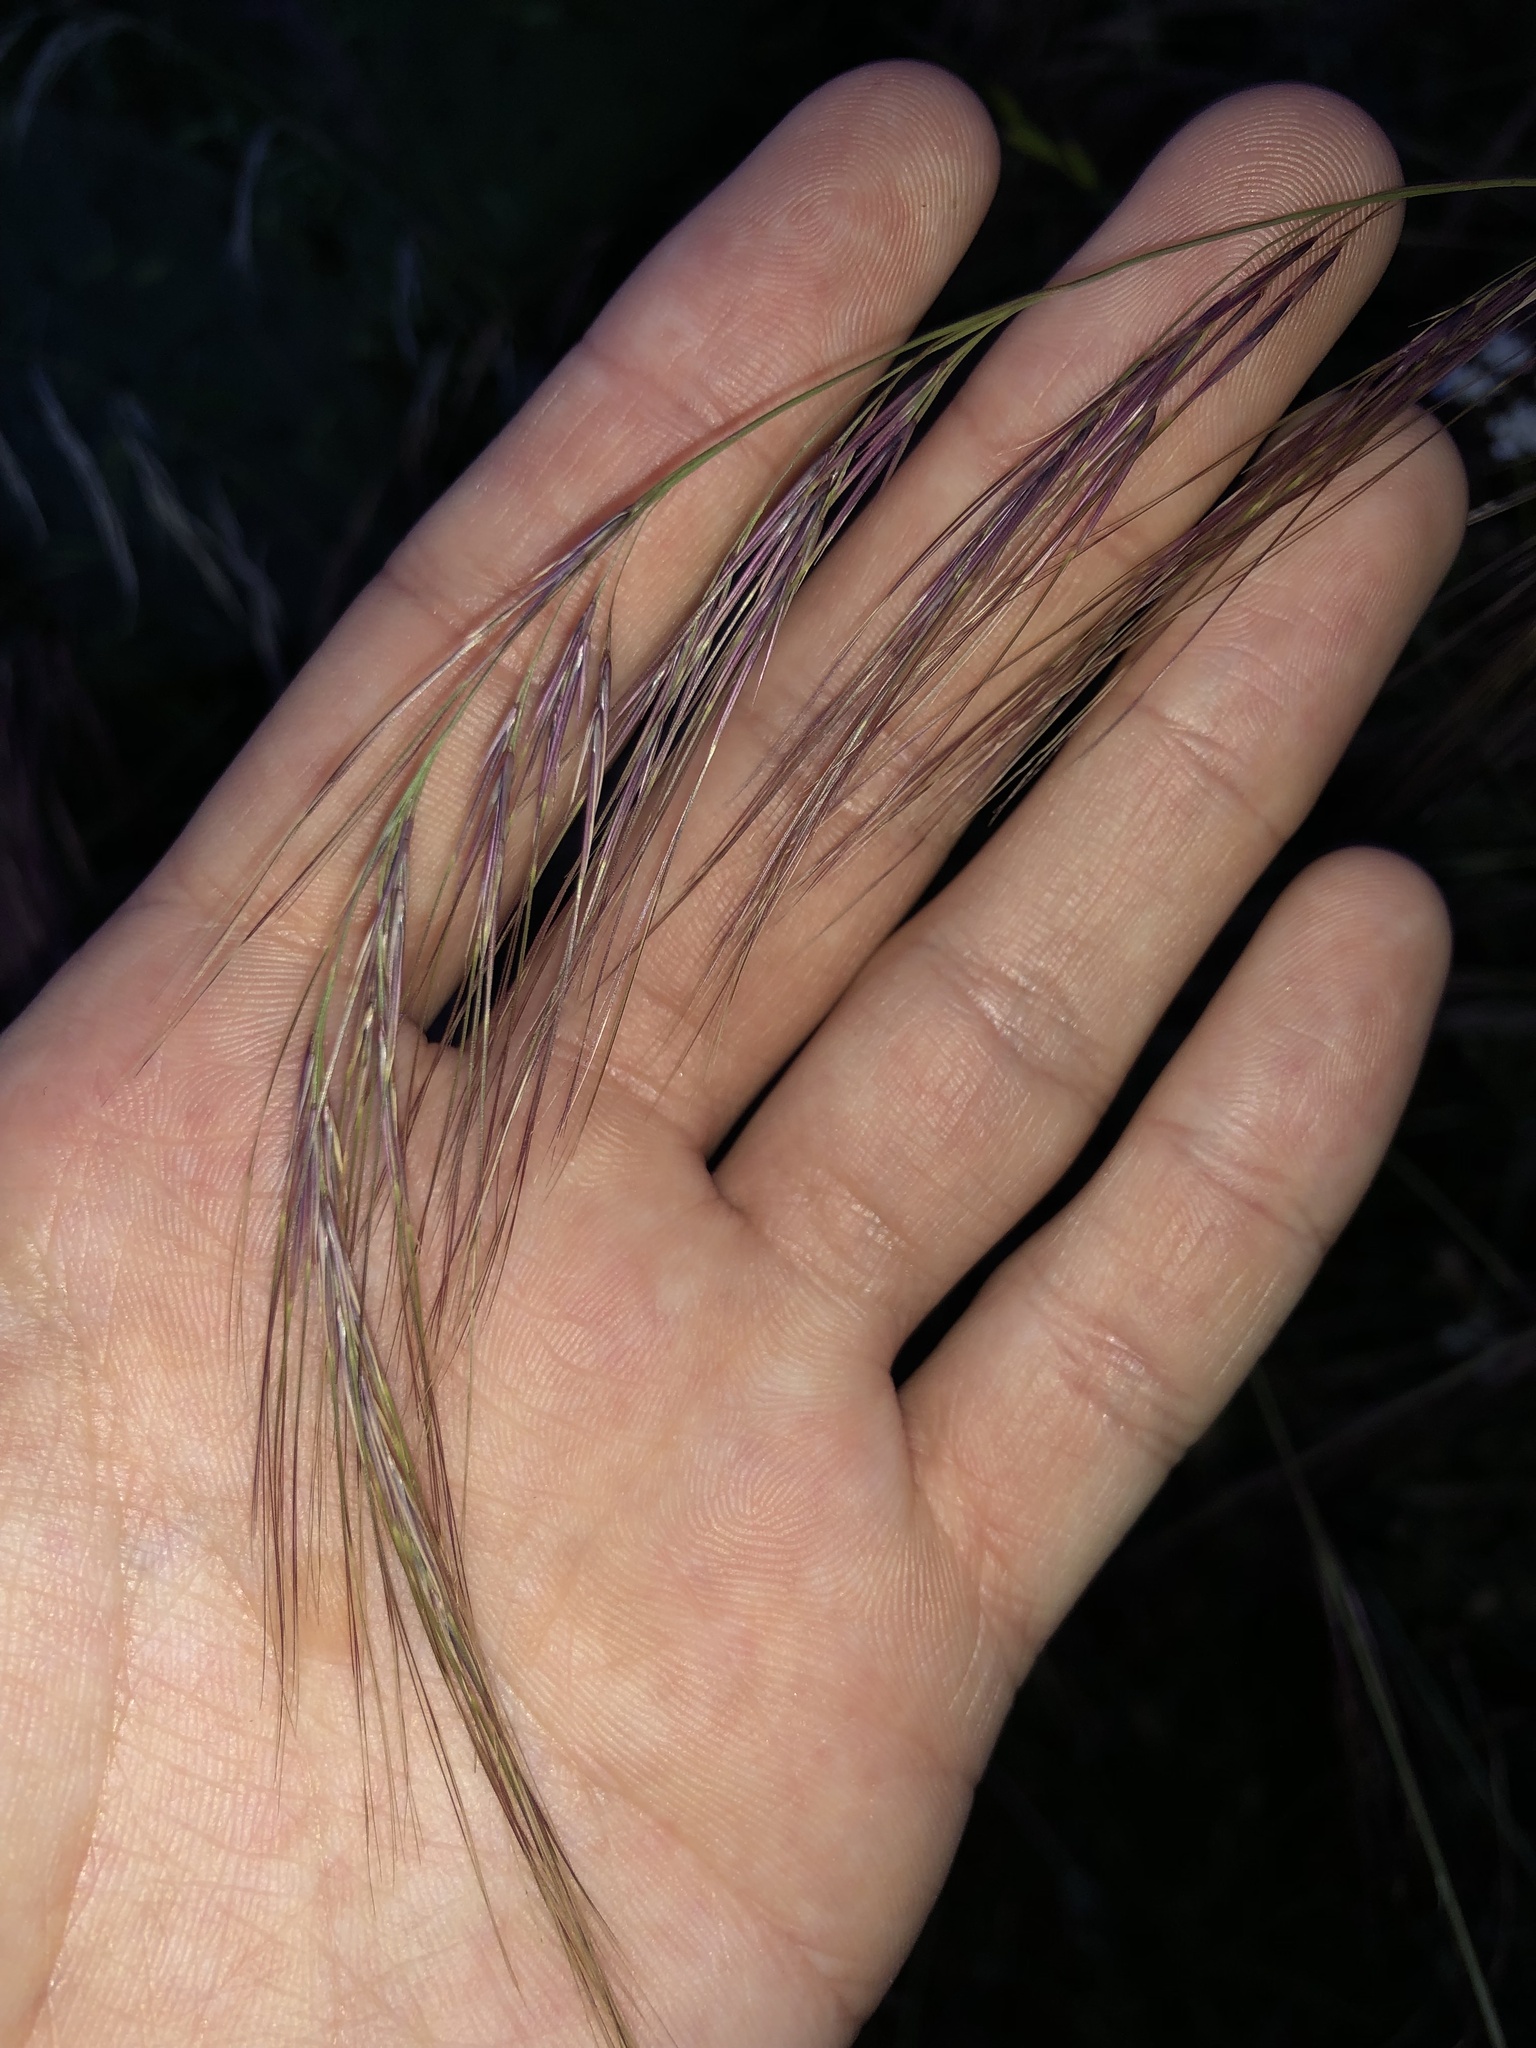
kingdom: Plantae
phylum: Tracheophyta
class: Liliopsida
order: Poales
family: Poaceae
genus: Aristida
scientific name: Aristida purpurea
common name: Purple threeawn
